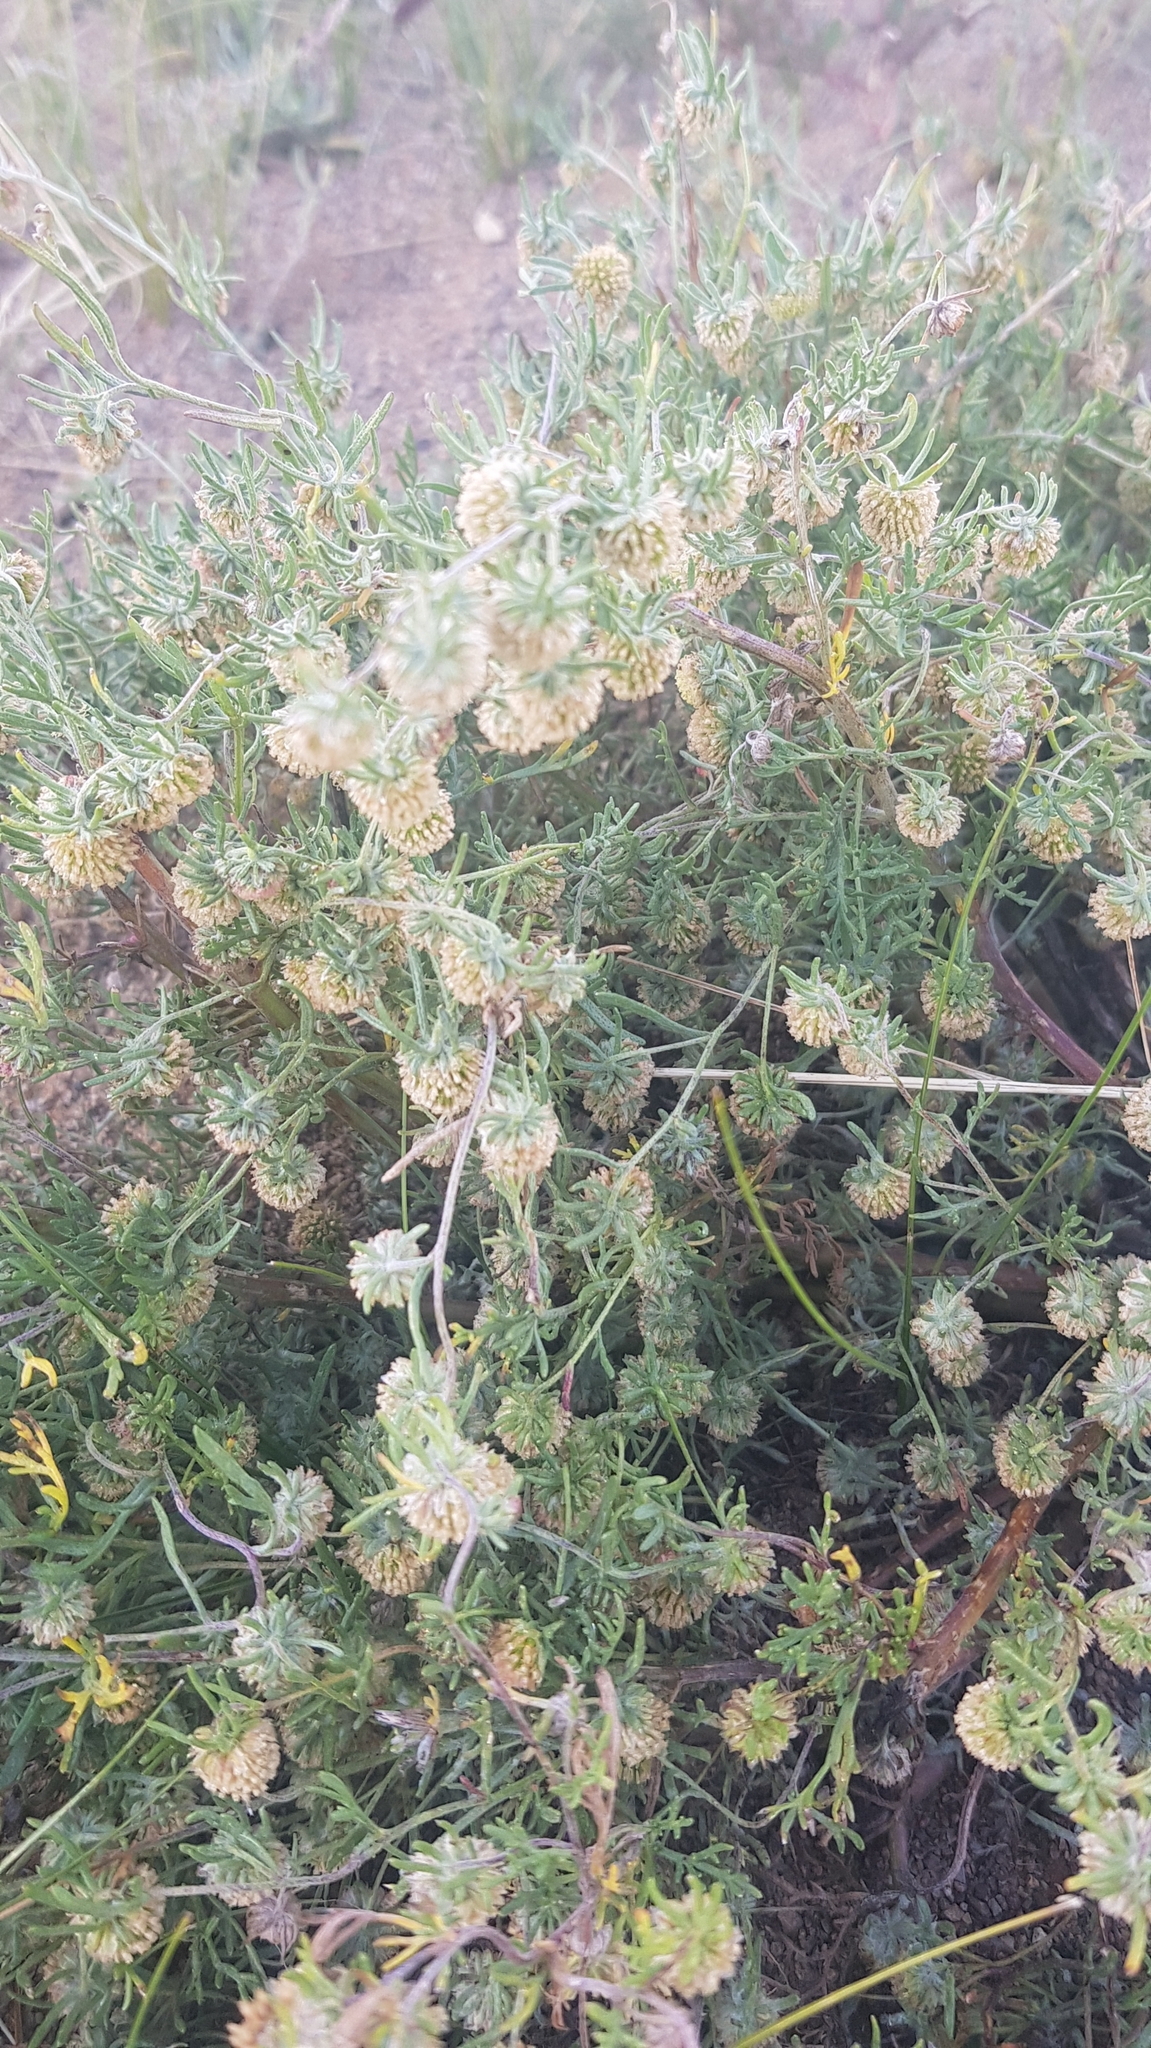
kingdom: Plantae
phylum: Tracheophyta
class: Magnoliopsida
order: Asterales
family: Asteraceae
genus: Artemisia
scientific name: Artemisia sieversiana
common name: Sieversian wormwood
